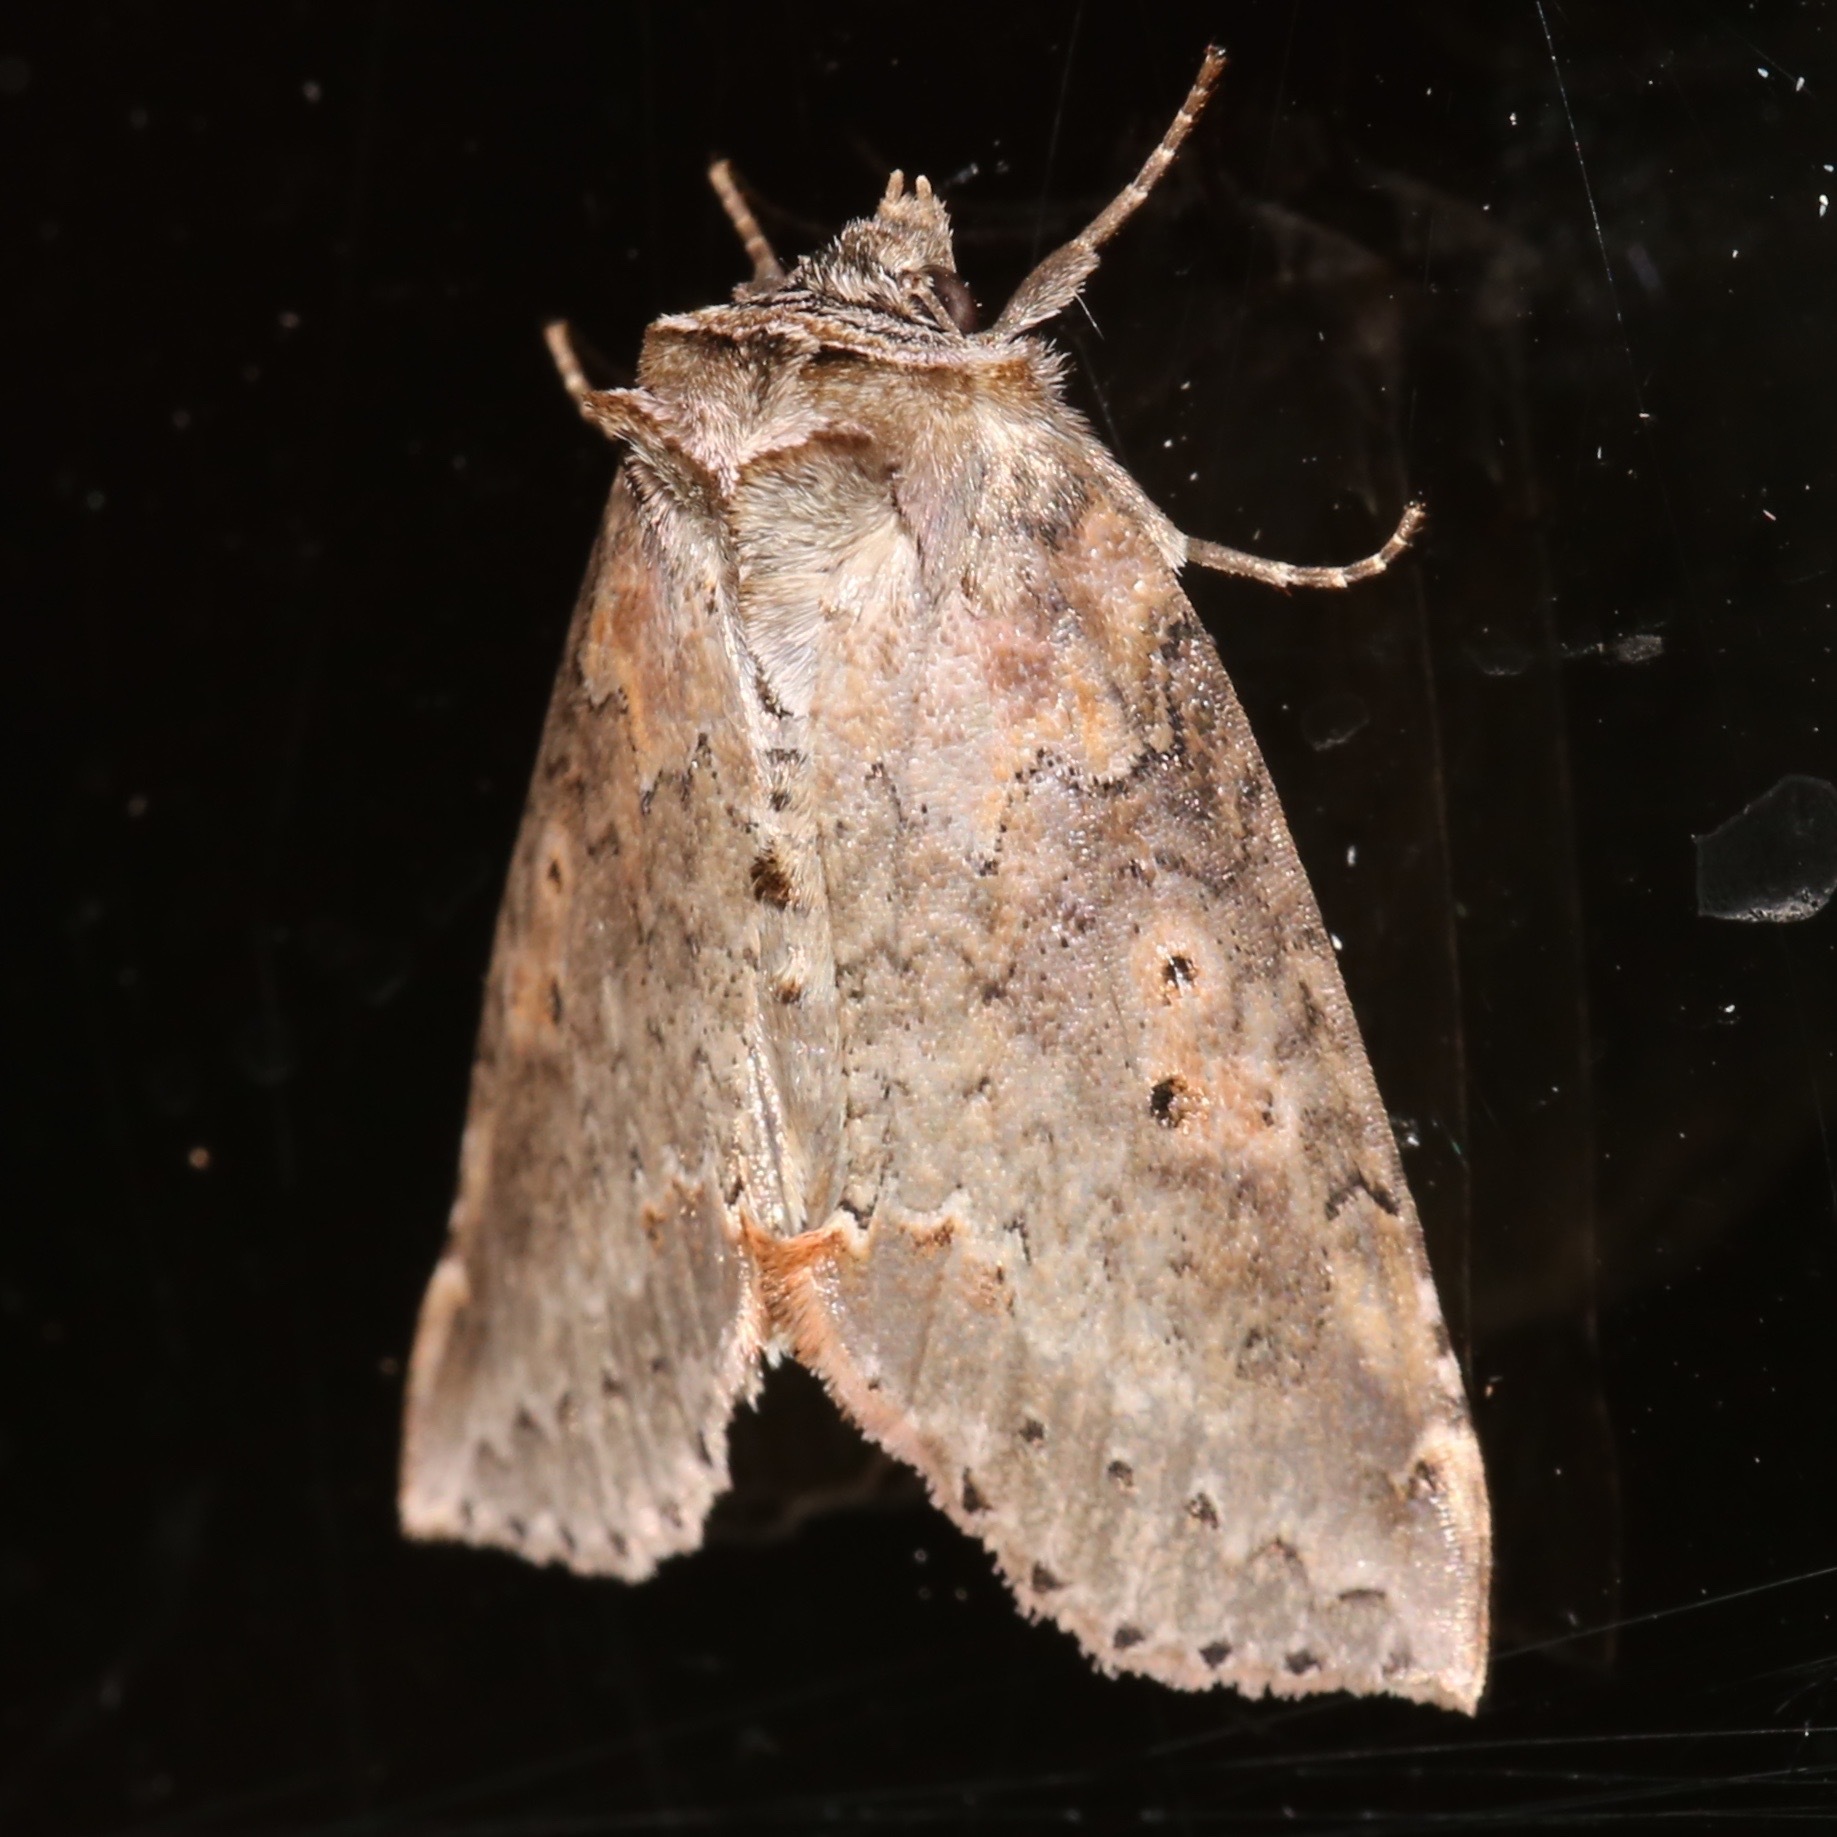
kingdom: Animalia
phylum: Arthropoda
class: Insecta
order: Lepidoptera
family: Drepanidae
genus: Pseudothyatira
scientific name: Pseudothyatira cymatophoroides
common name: Tufted thyatirid moth
